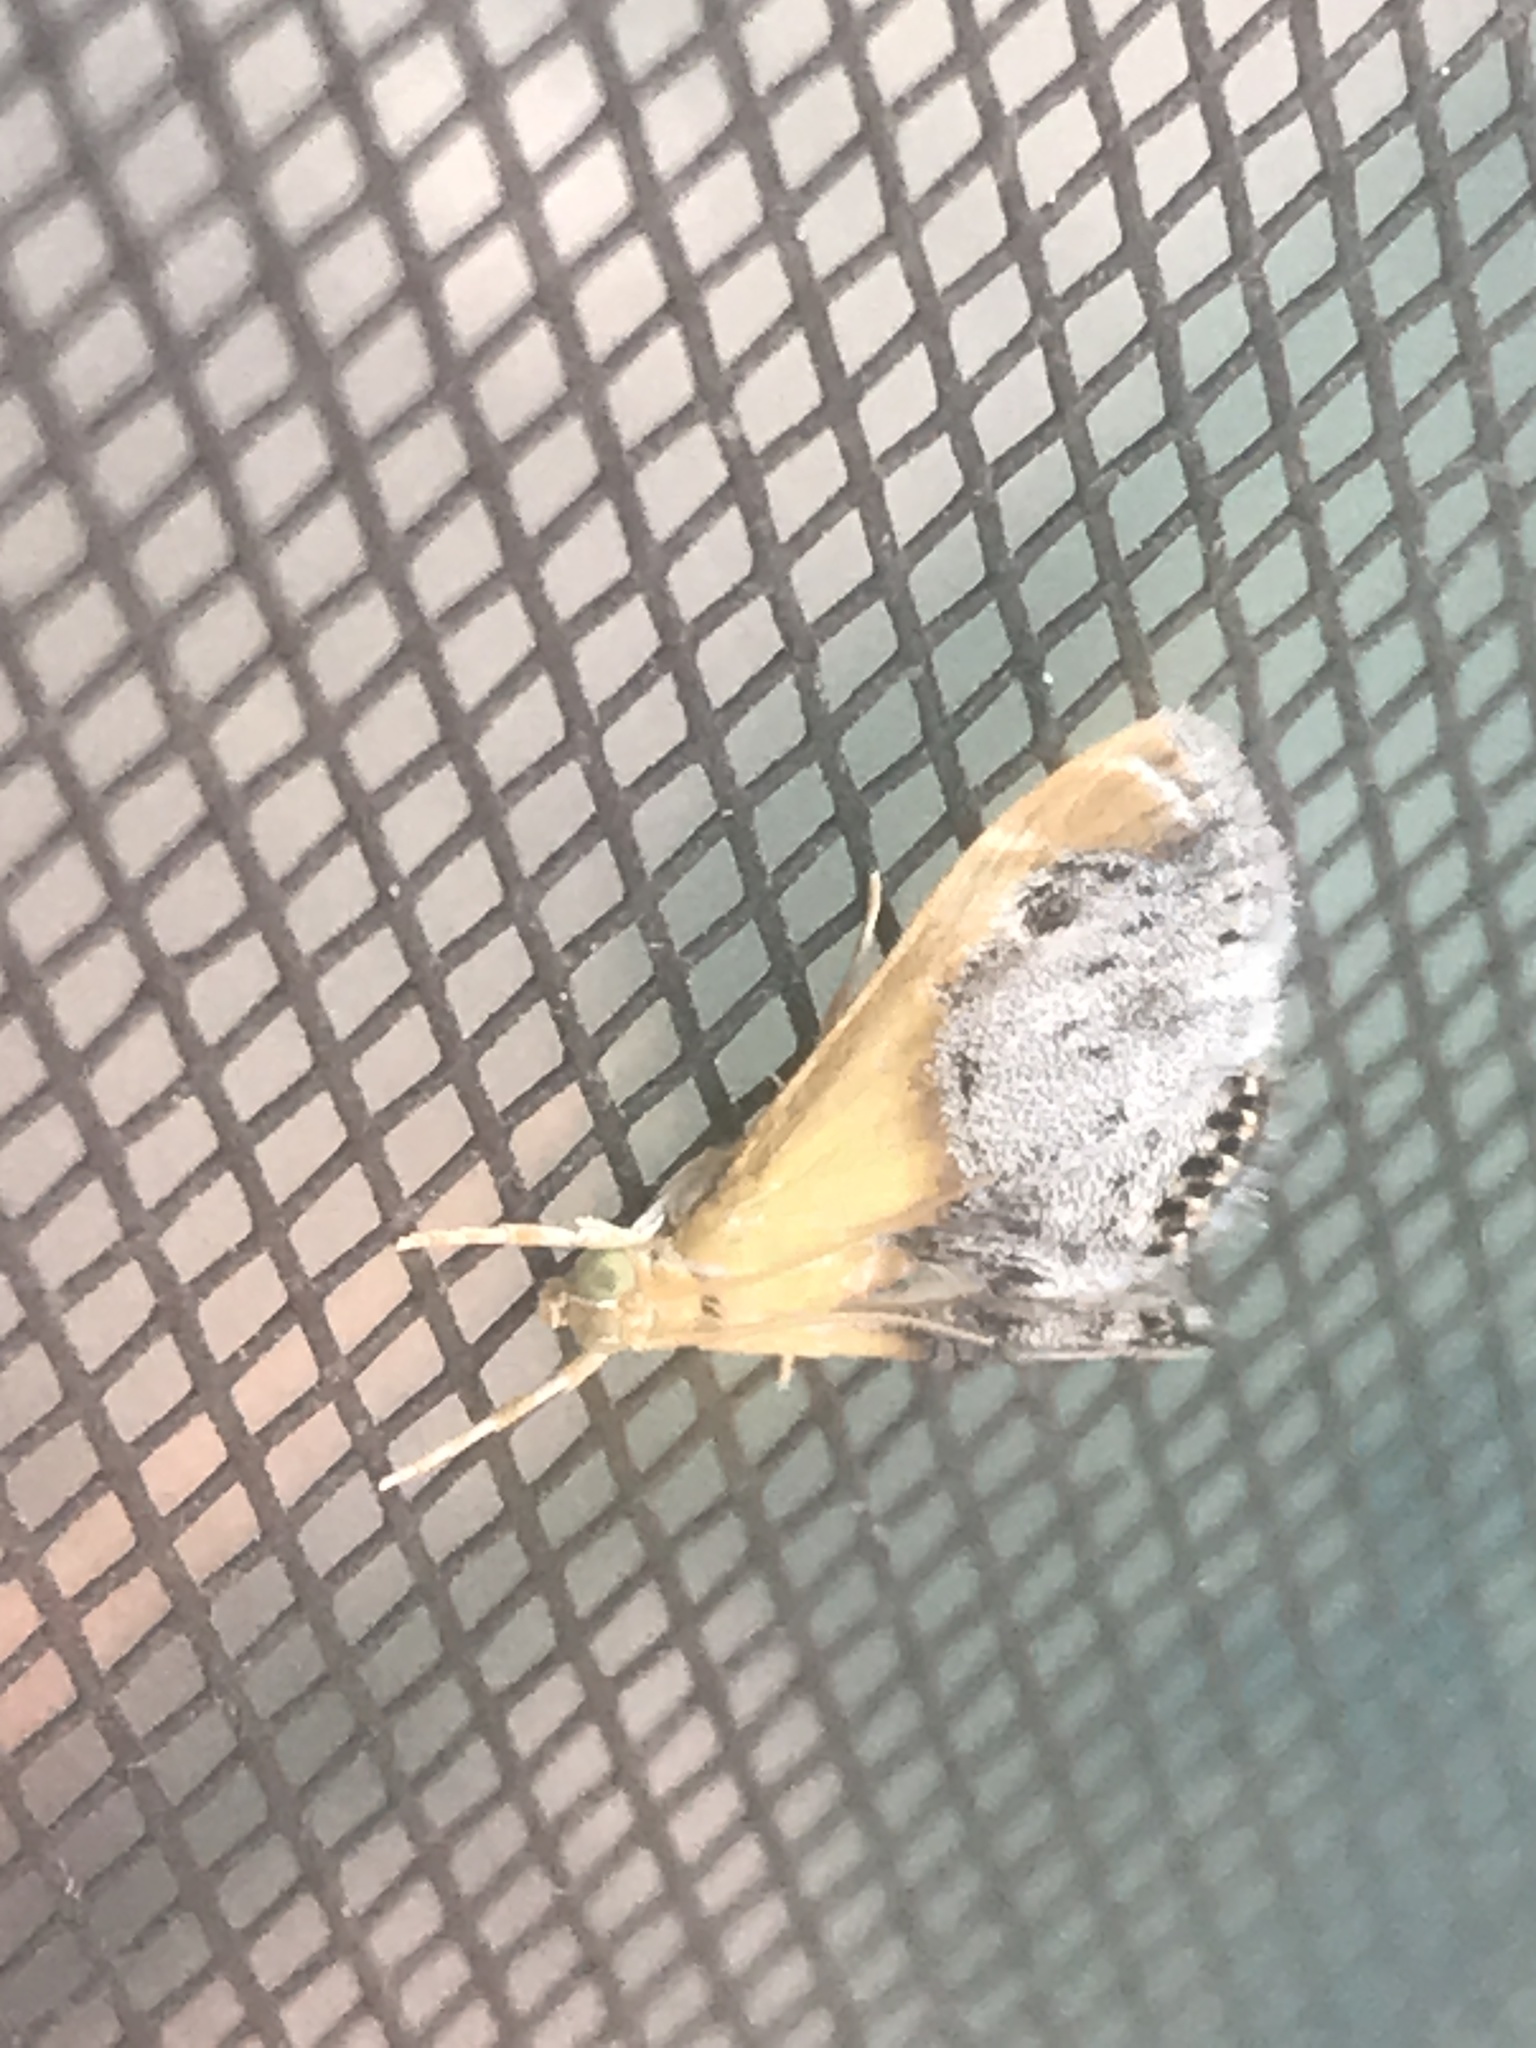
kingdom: Animalia
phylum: Arthropoda
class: Insecta
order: Lepidoptera
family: Crambidae
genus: Chalcoela
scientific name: Chalcoela iphitalis
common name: Sooty-winged chalcoela moth
